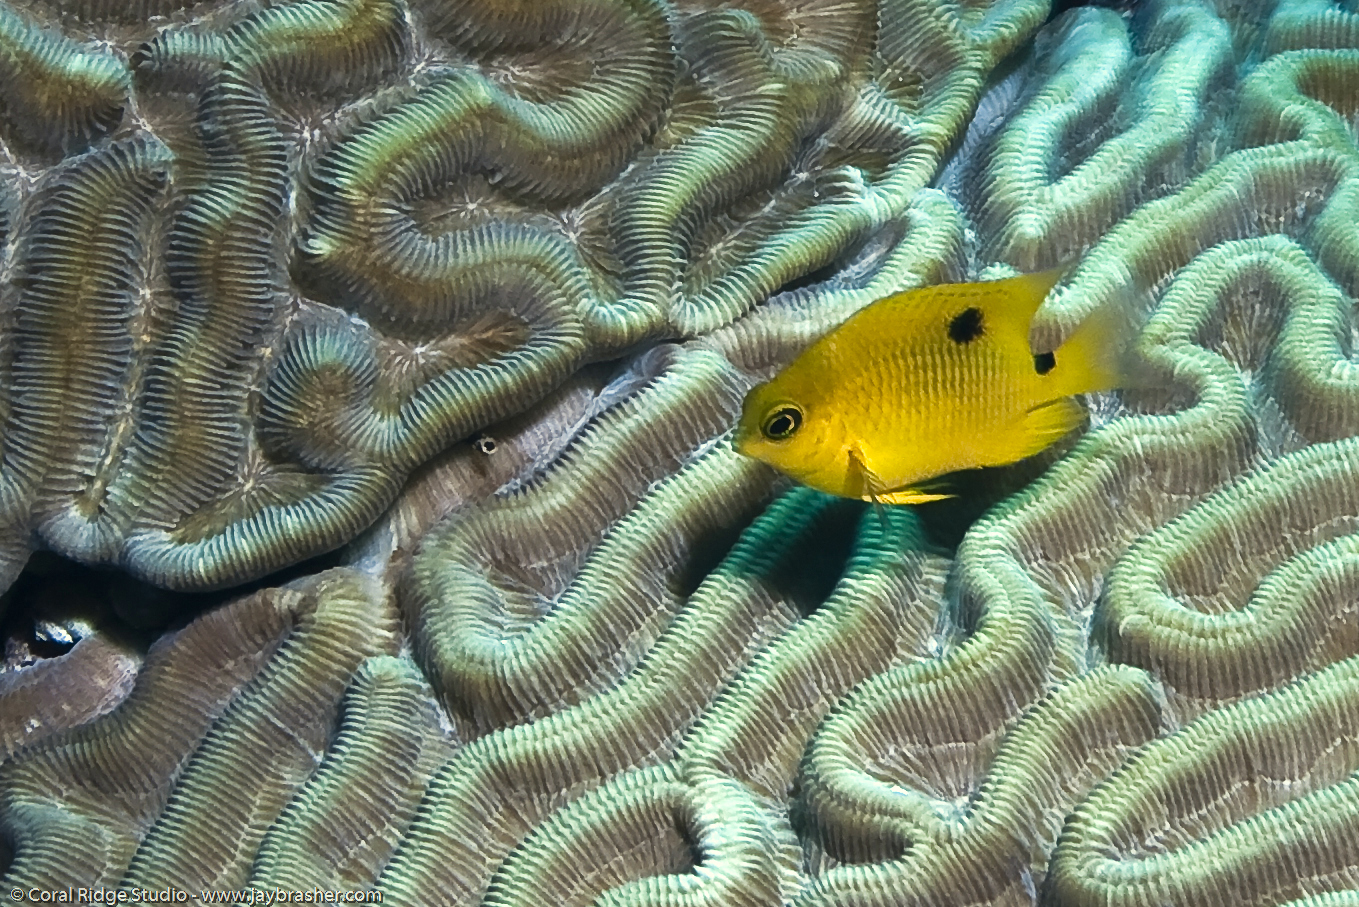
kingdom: Animalia
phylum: Chordata
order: Perciformes
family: Pomacentridae
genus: Stegastes
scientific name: Stegastes planifrons
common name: Threespot damselfish
